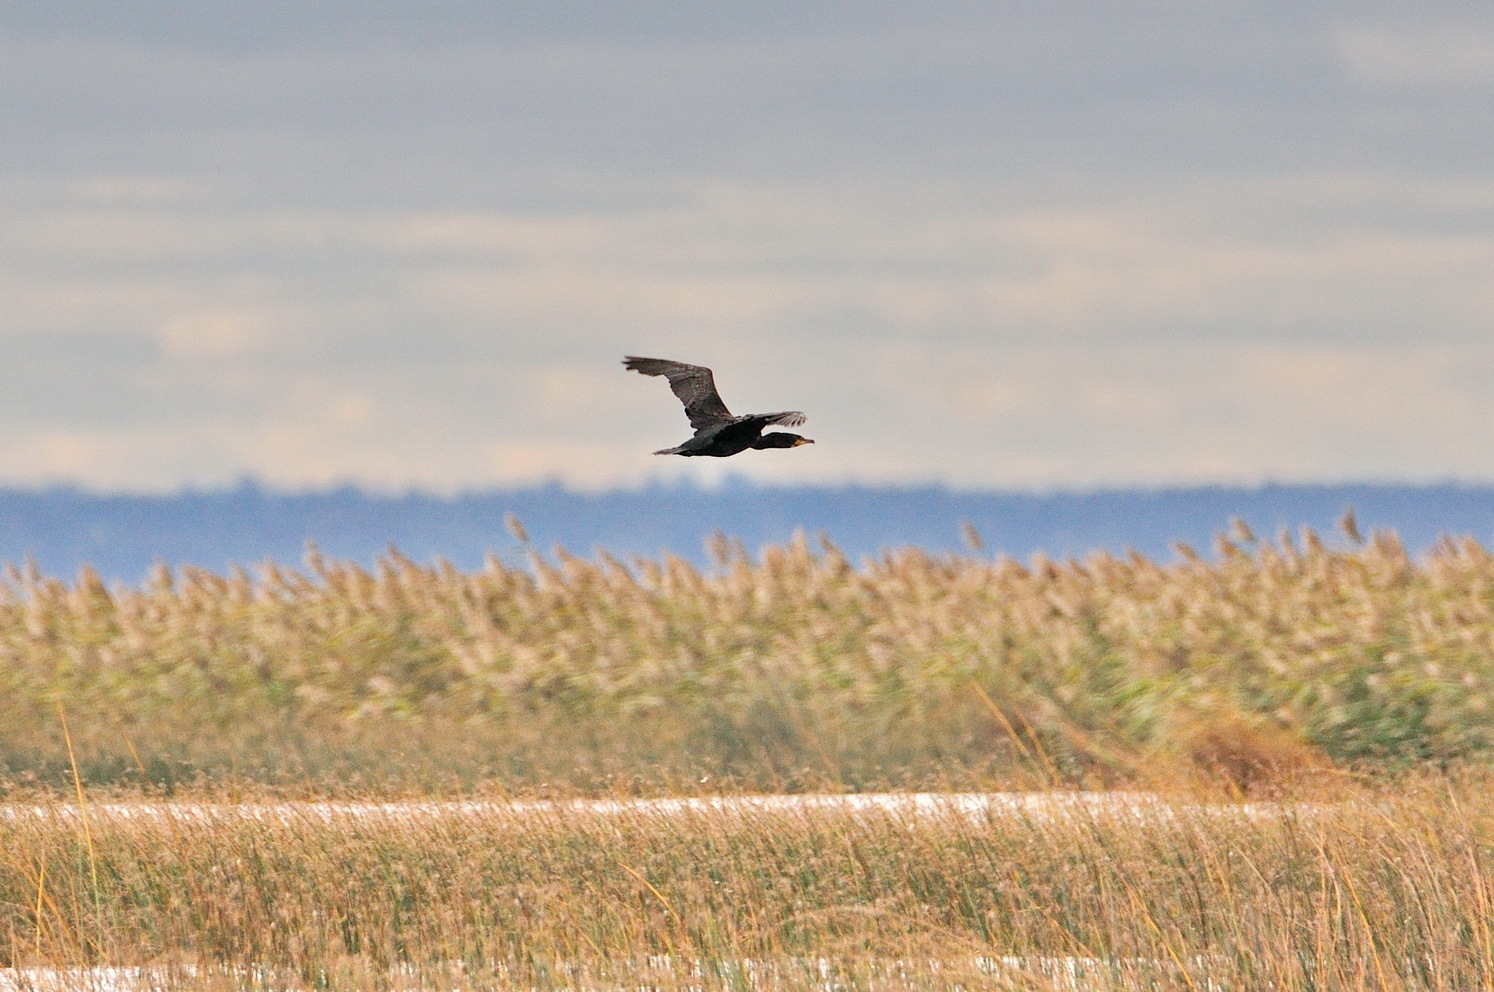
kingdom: Animalia
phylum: Chordata
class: Aves
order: Suliformes
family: Phalacrocoracidae
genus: Phalacrocorax
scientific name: Phalacrocorax carbo
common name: Great cormorant
